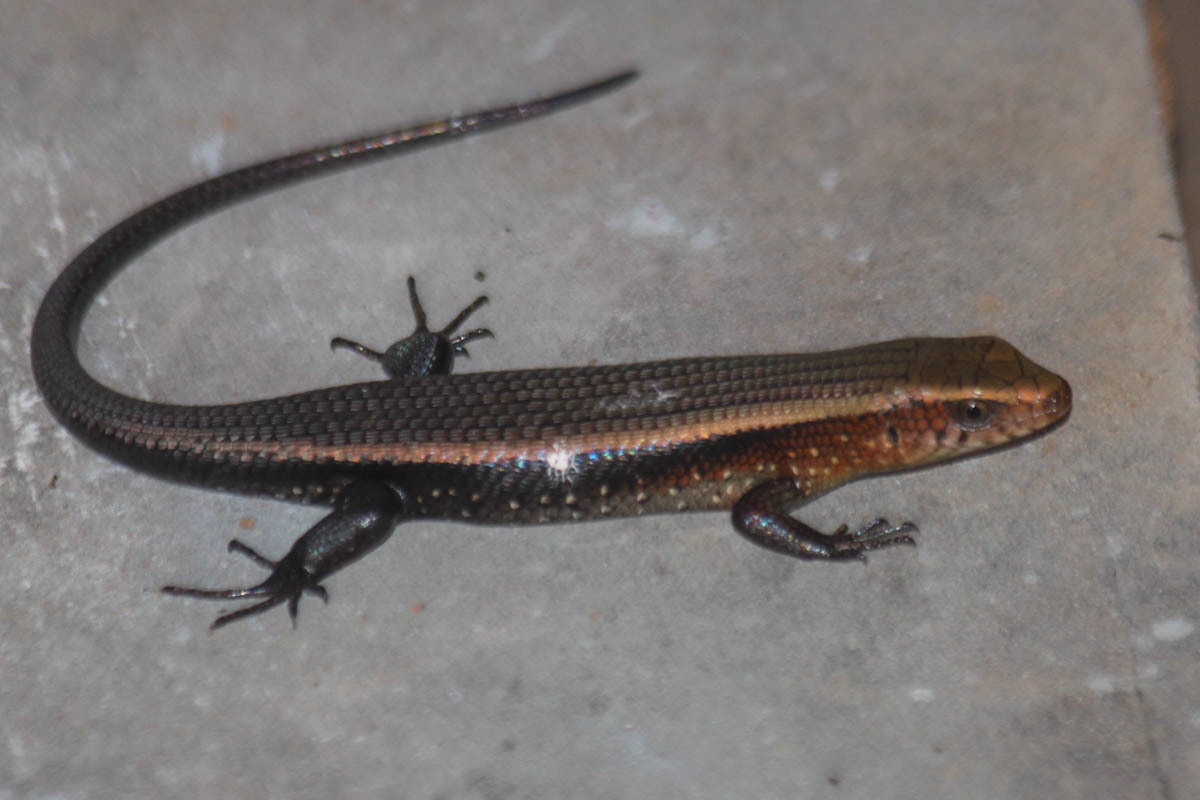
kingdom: Animalia
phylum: Chordata
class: Squamata
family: Scincidae
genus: Eutropis
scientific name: Eutropis multifasciata
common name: Common mabuya
